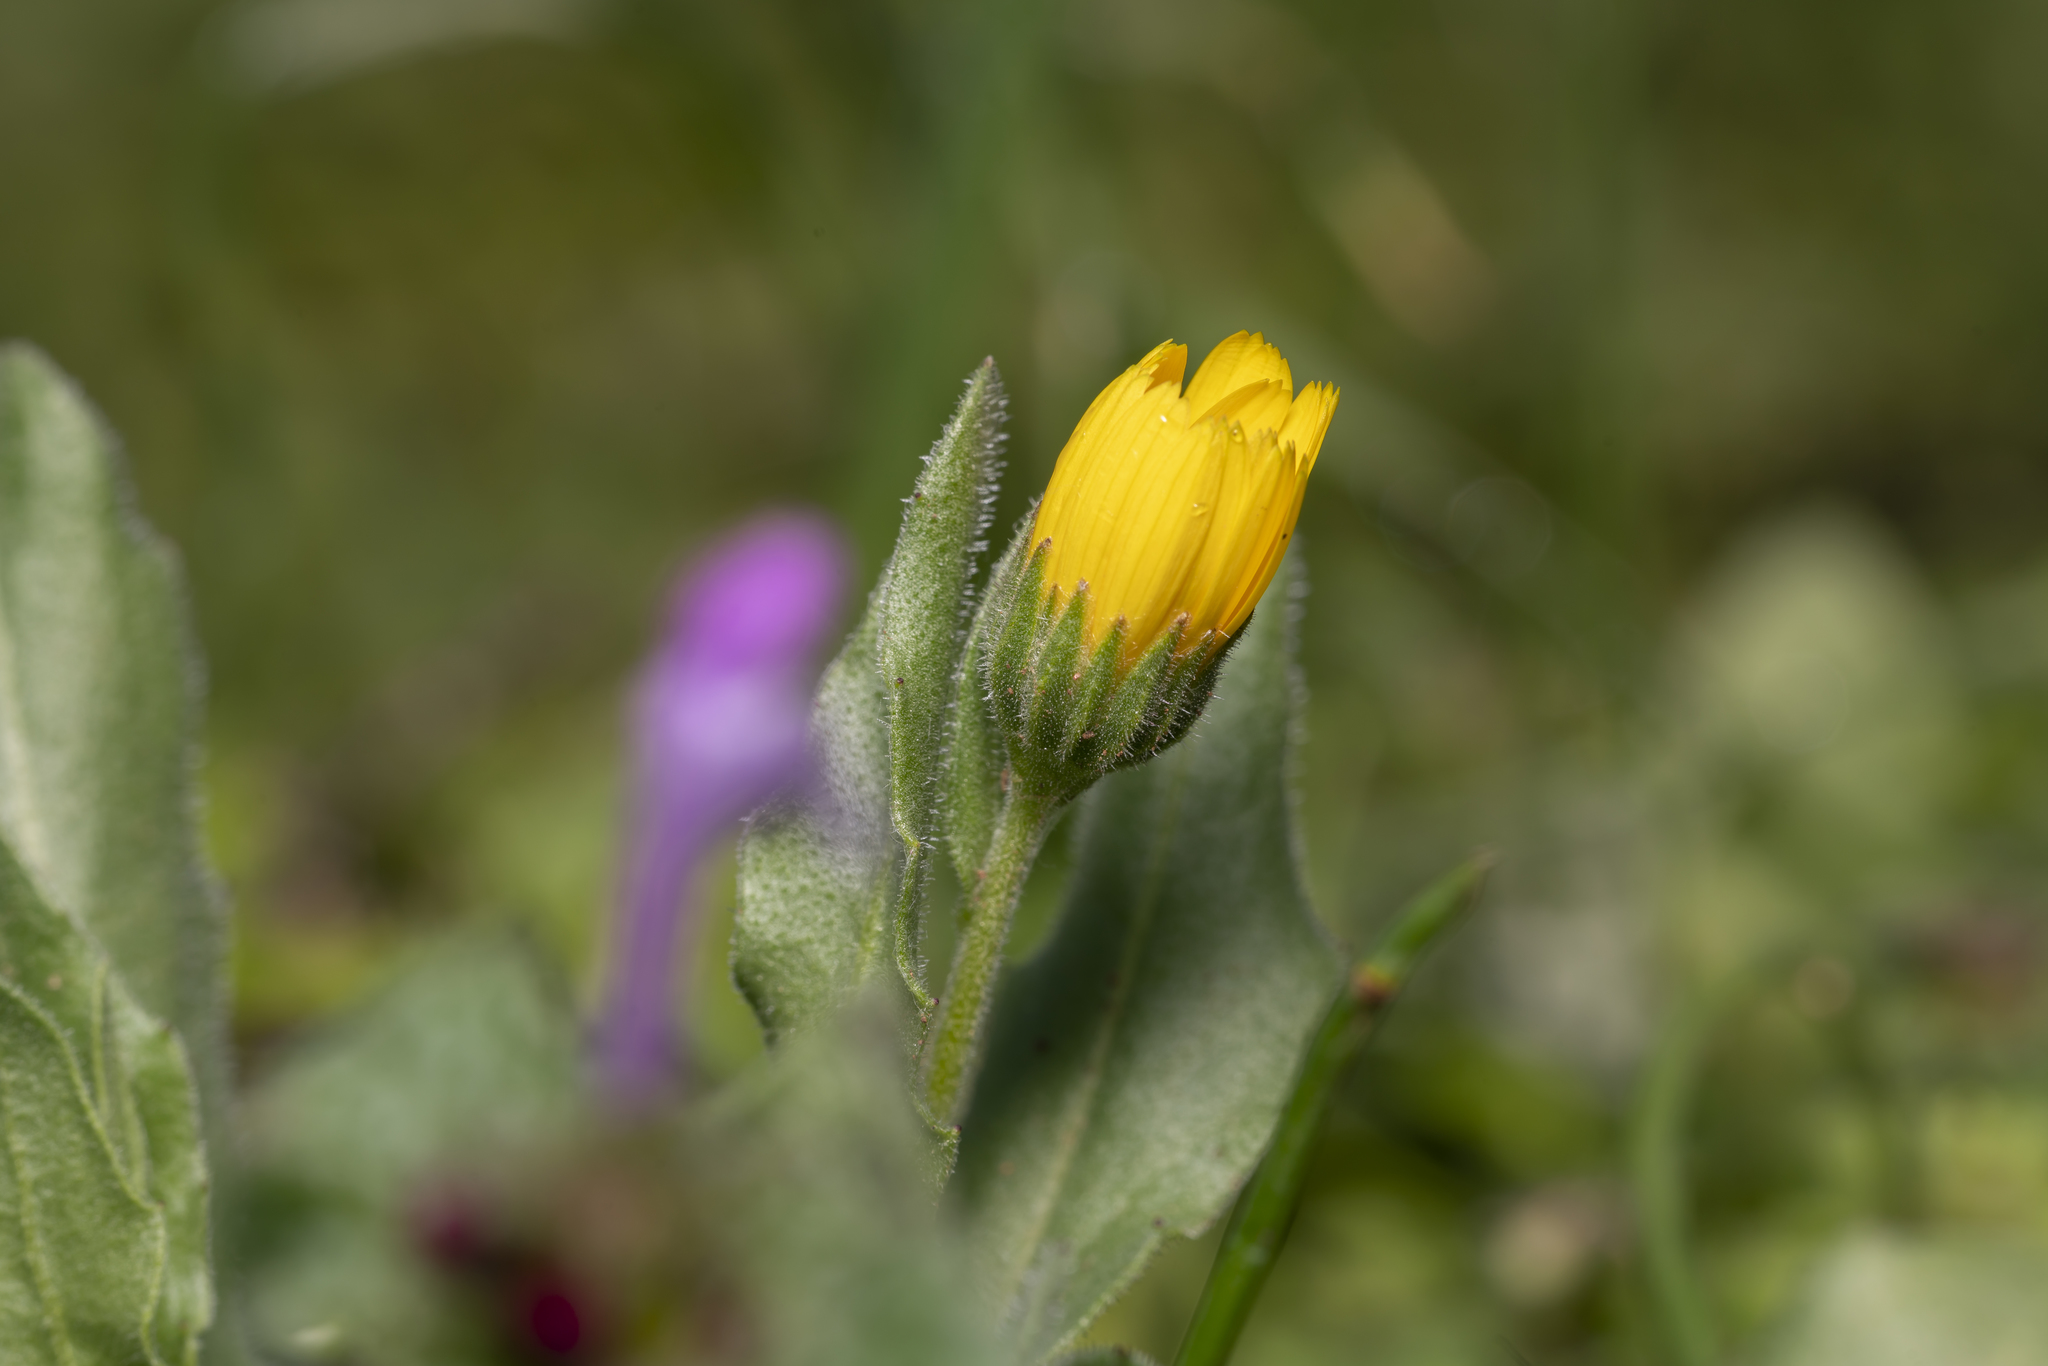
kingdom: Plantae
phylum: Tracheophyta
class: Magnoliopsida
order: Asterales
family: Asteraceae
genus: Calendula
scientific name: Calendula arvensis
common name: Field marigold
